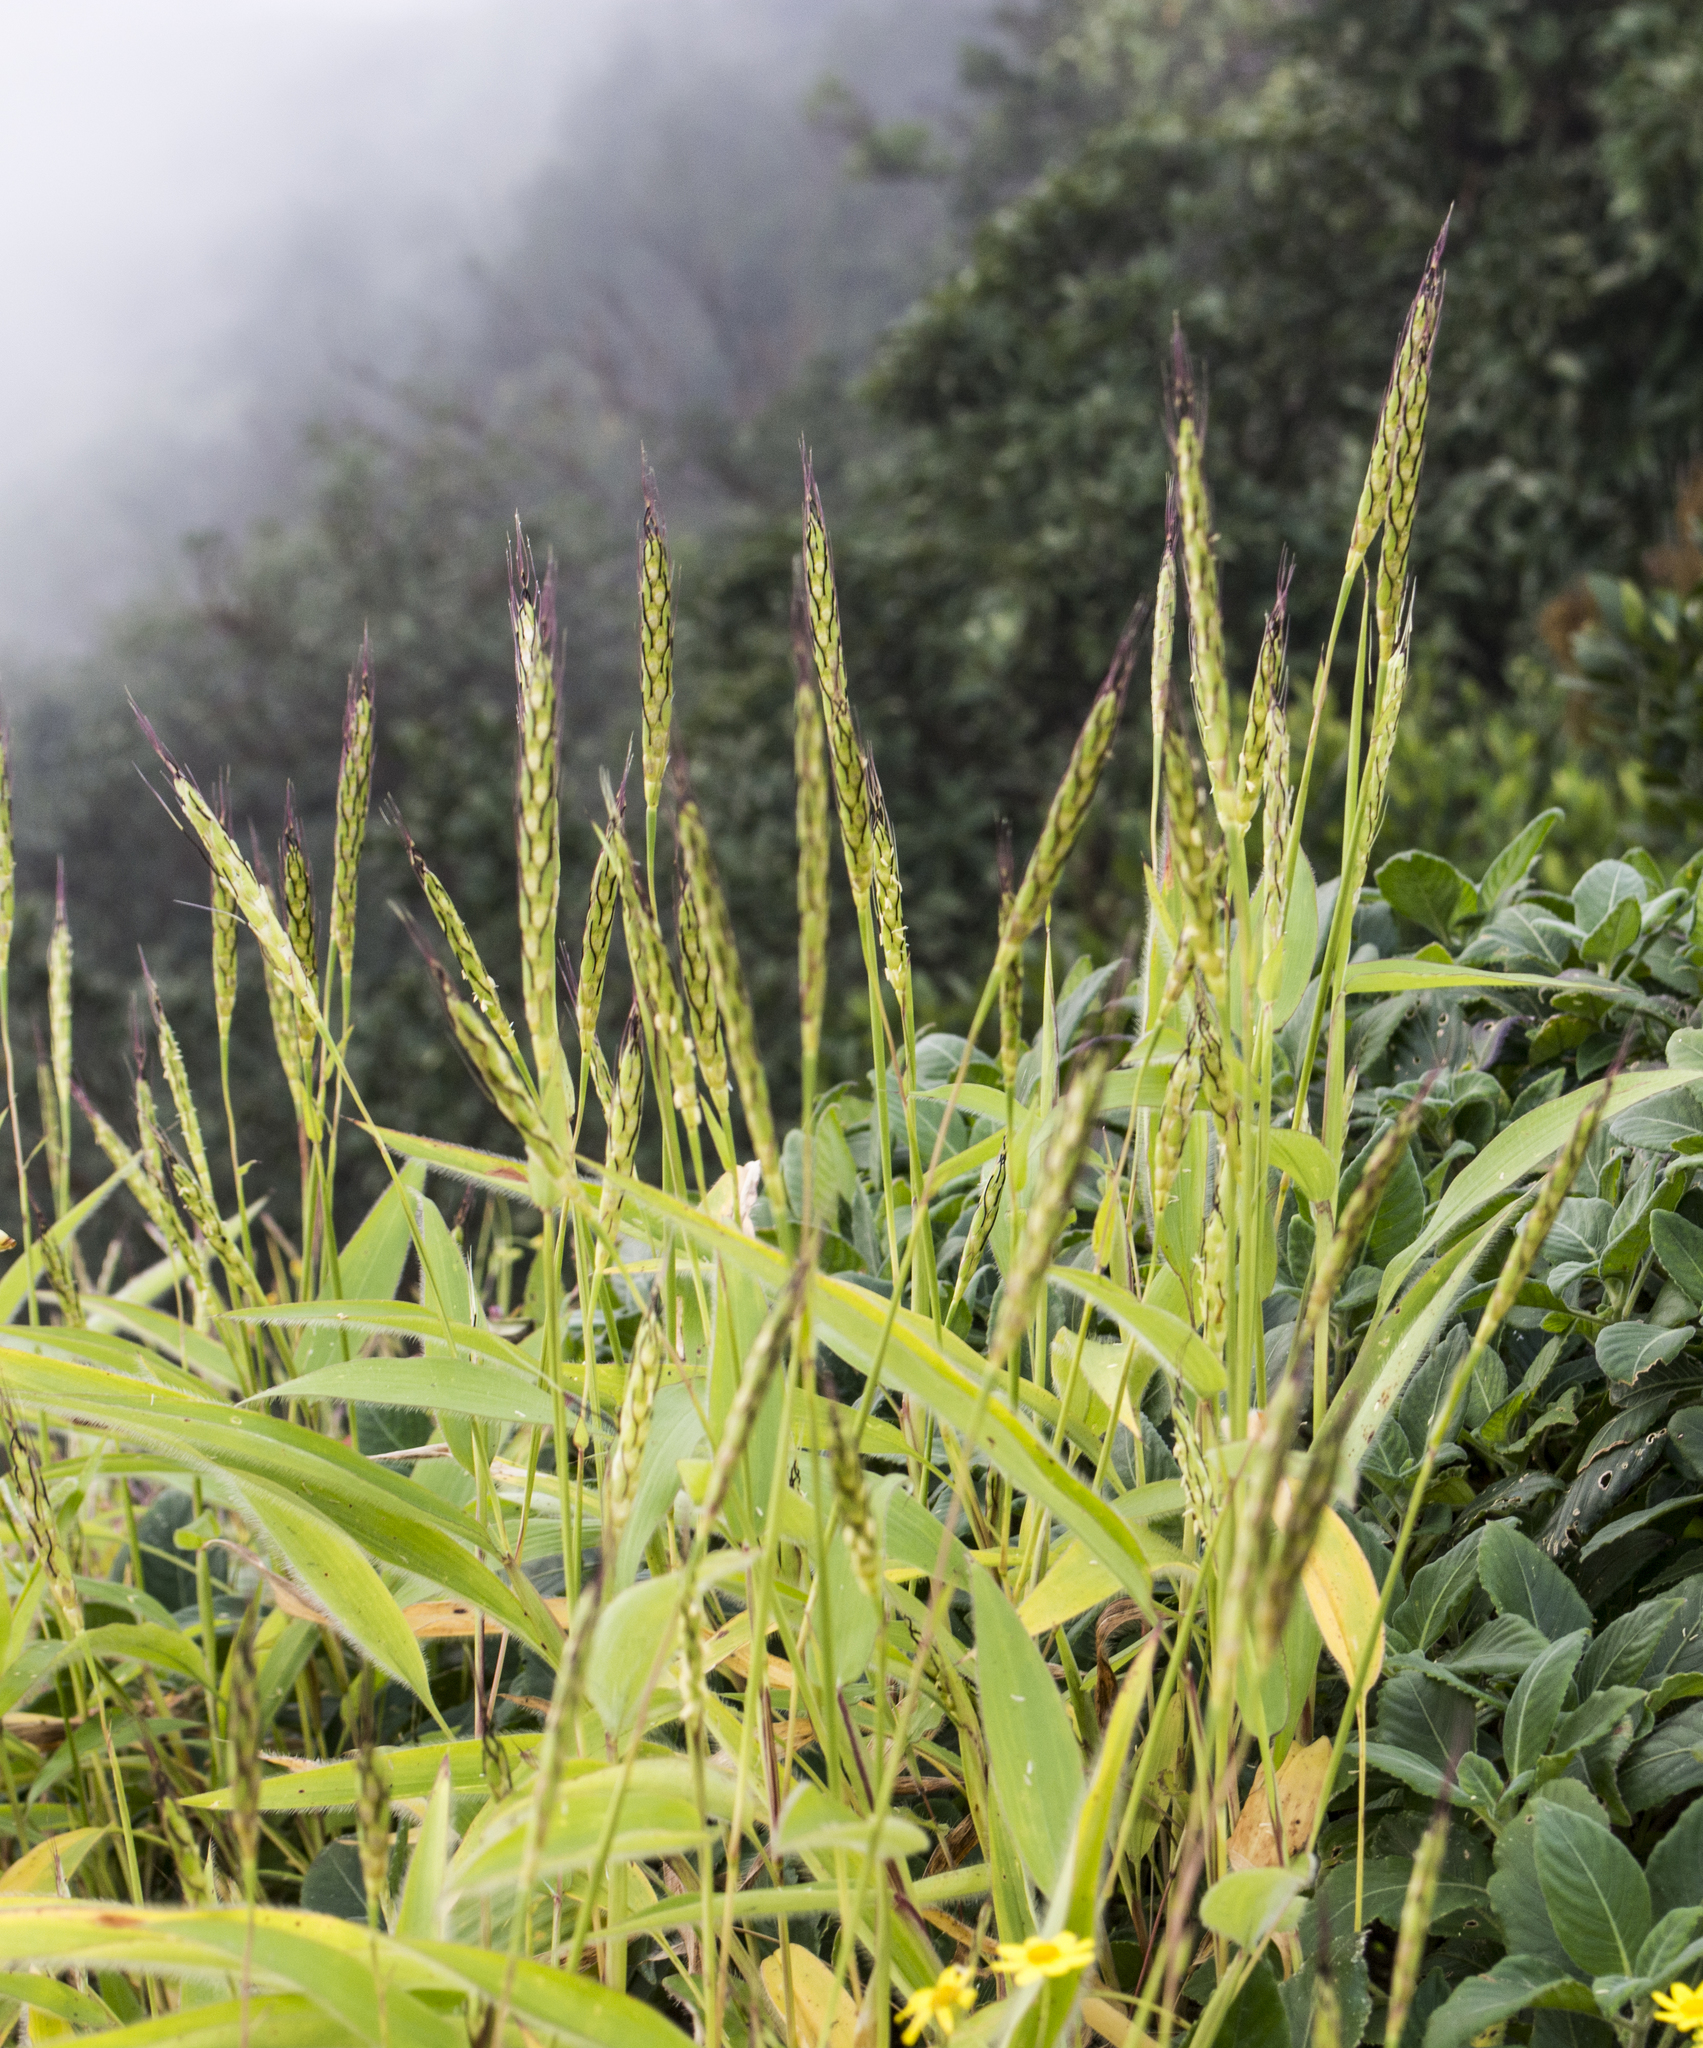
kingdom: Plantae
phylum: Tracheophyta
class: Liliopsida
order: Poales
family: Poaceae
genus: Ischaemum
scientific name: Ischaemum impressum
